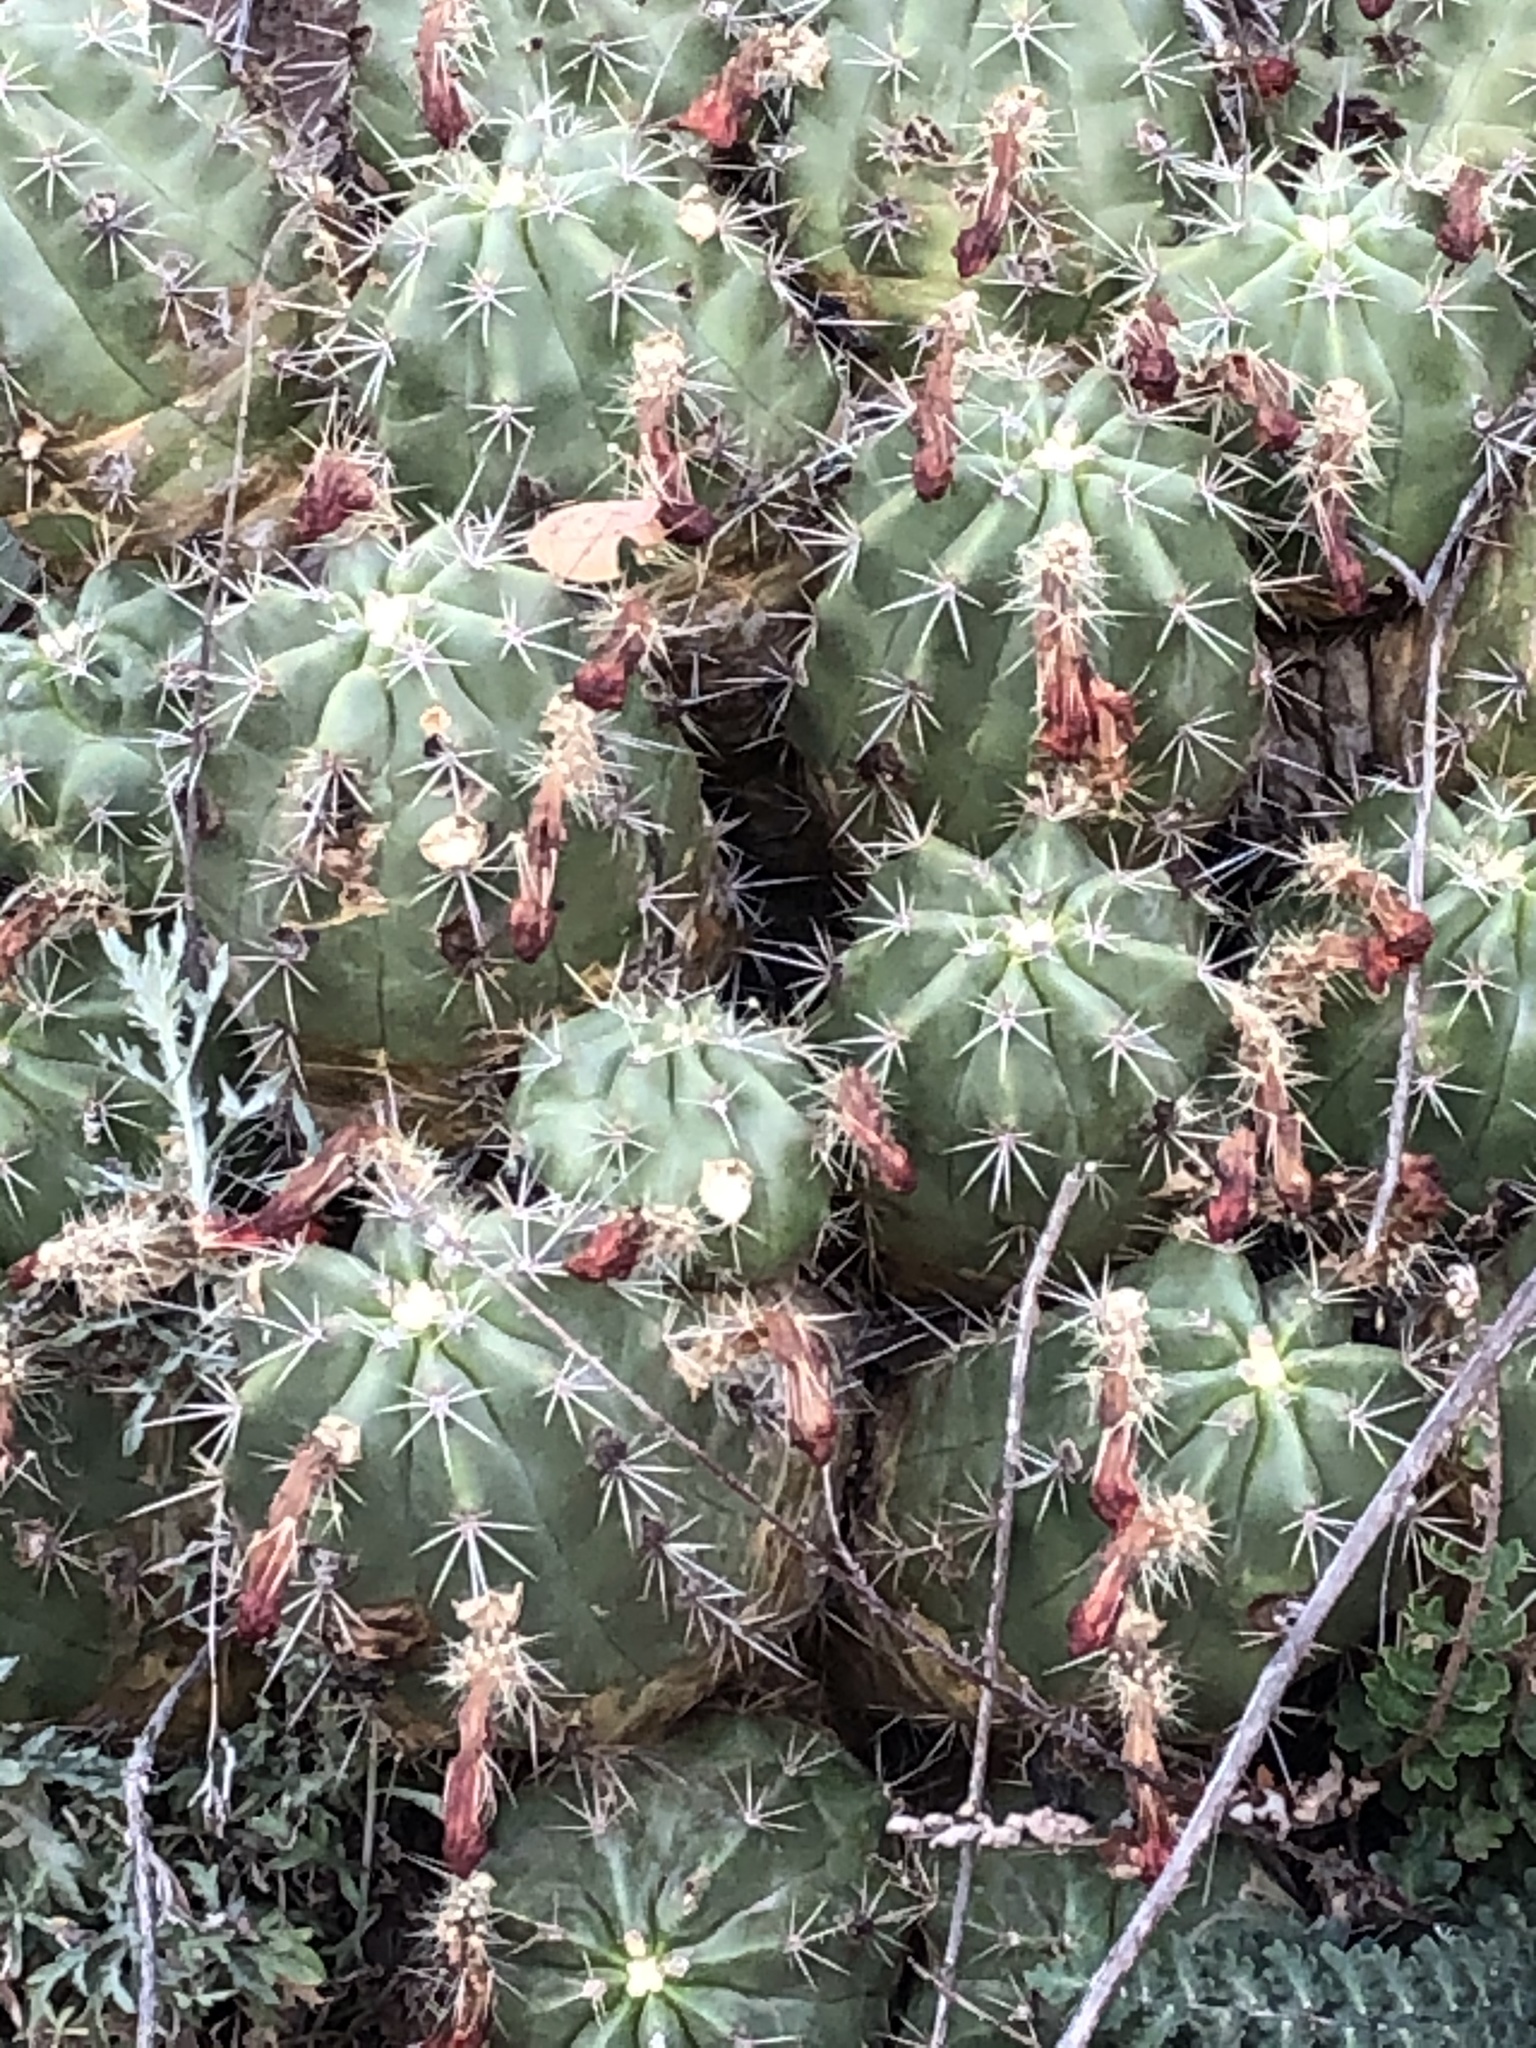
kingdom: Plantae
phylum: Tracheophyta
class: Magnoliopsida
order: Caryophyllales
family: Cactaceae
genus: Echinocereus
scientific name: Echinocereus coccineus
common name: Scarlet hedgehog cactus
